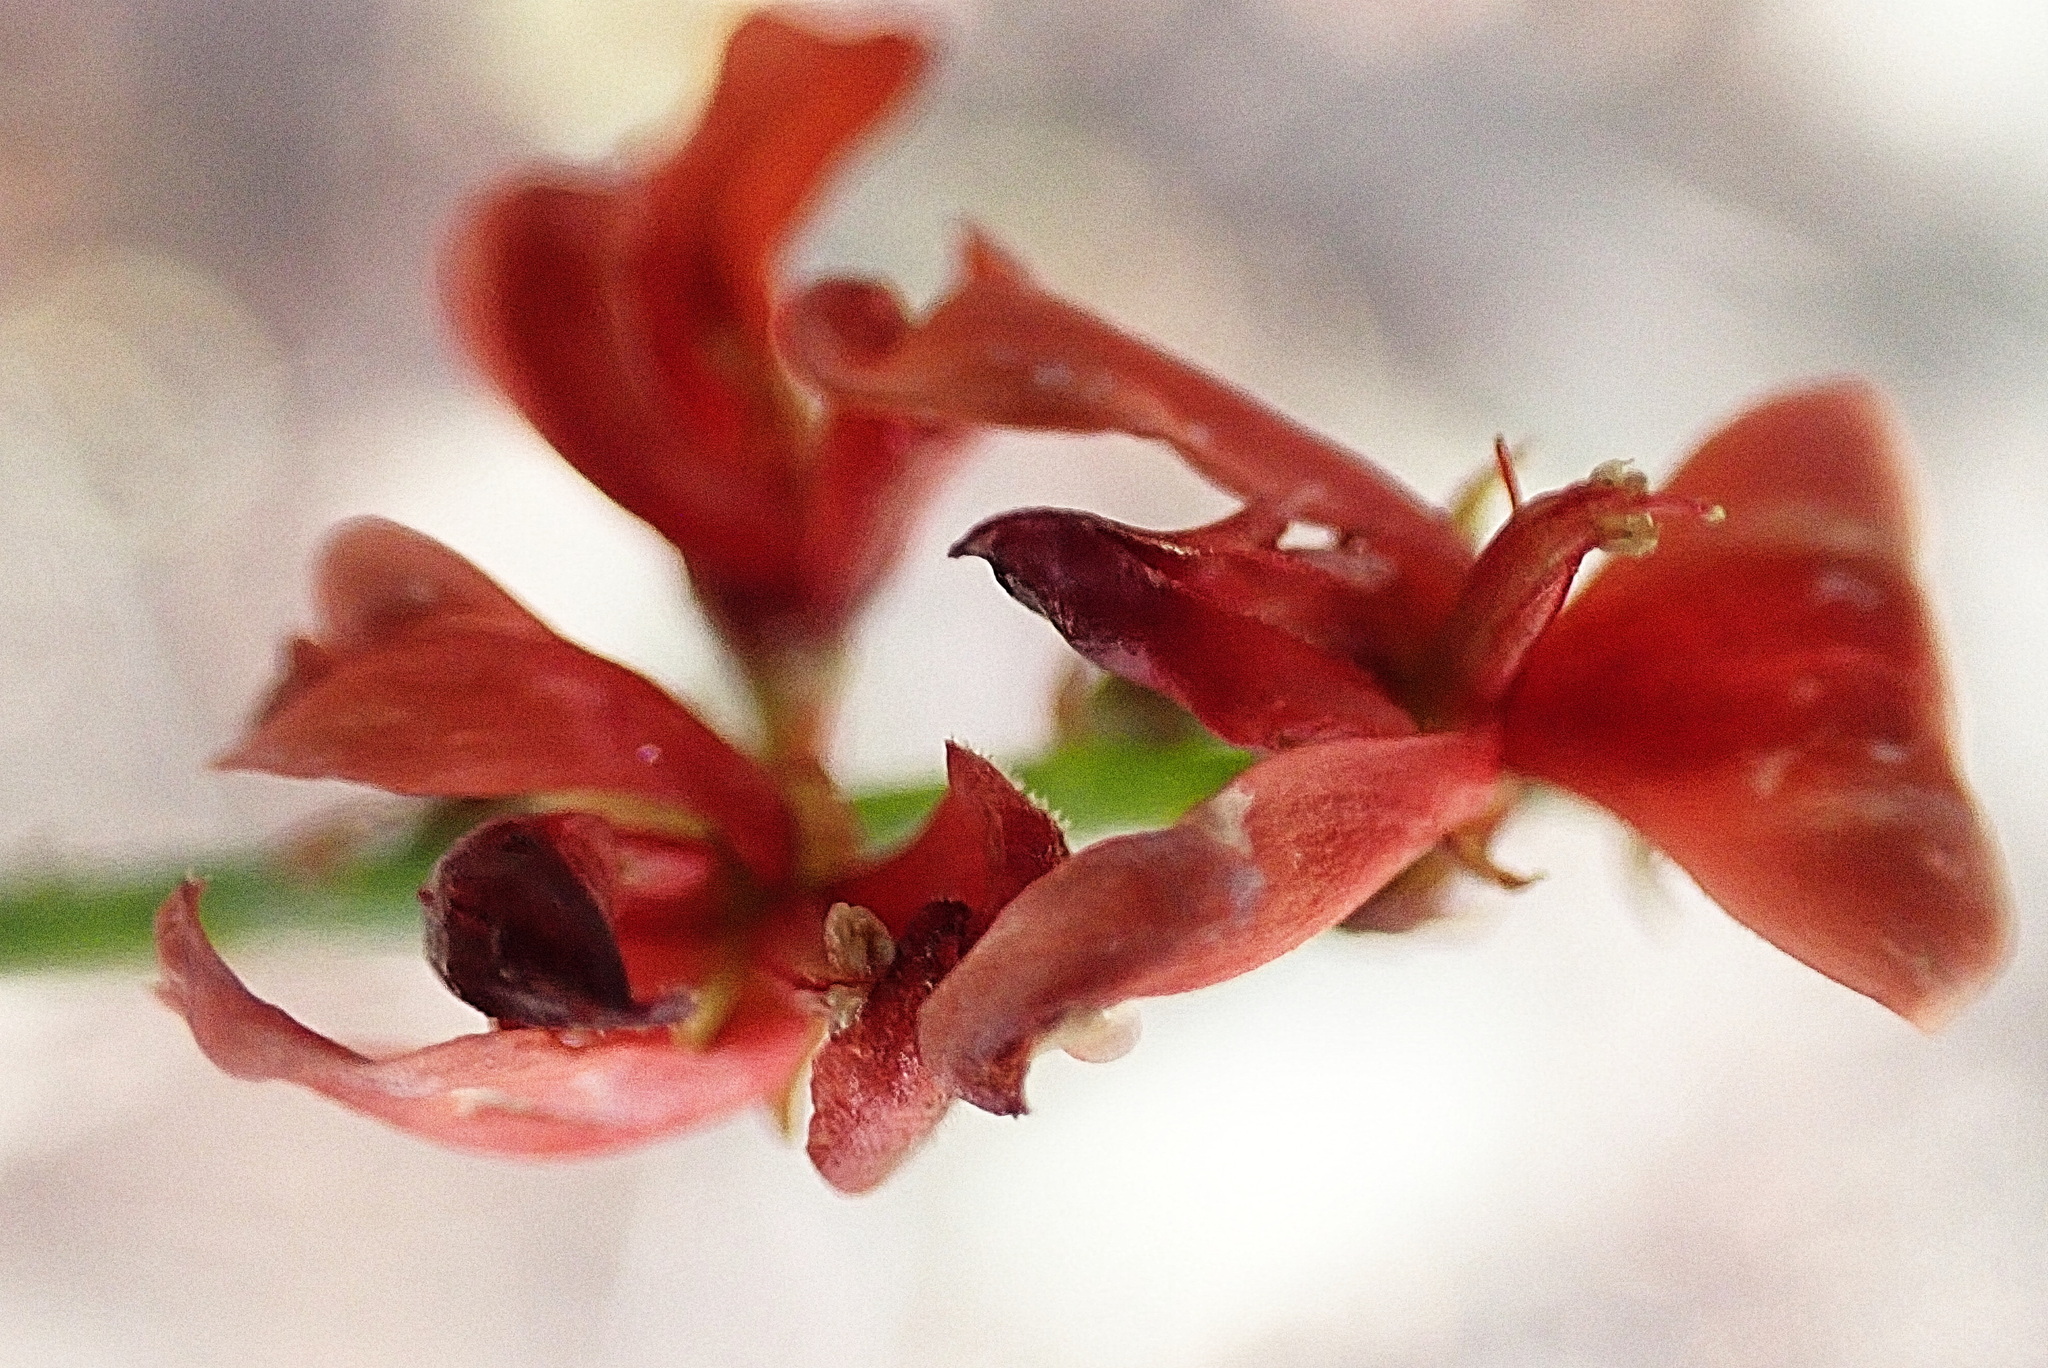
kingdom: Plantae
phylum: Tracheophyta
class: Magnoliopsida
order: Fabales
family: Fabaceae
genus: Indigofera
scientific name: Indigofera heterophylla
